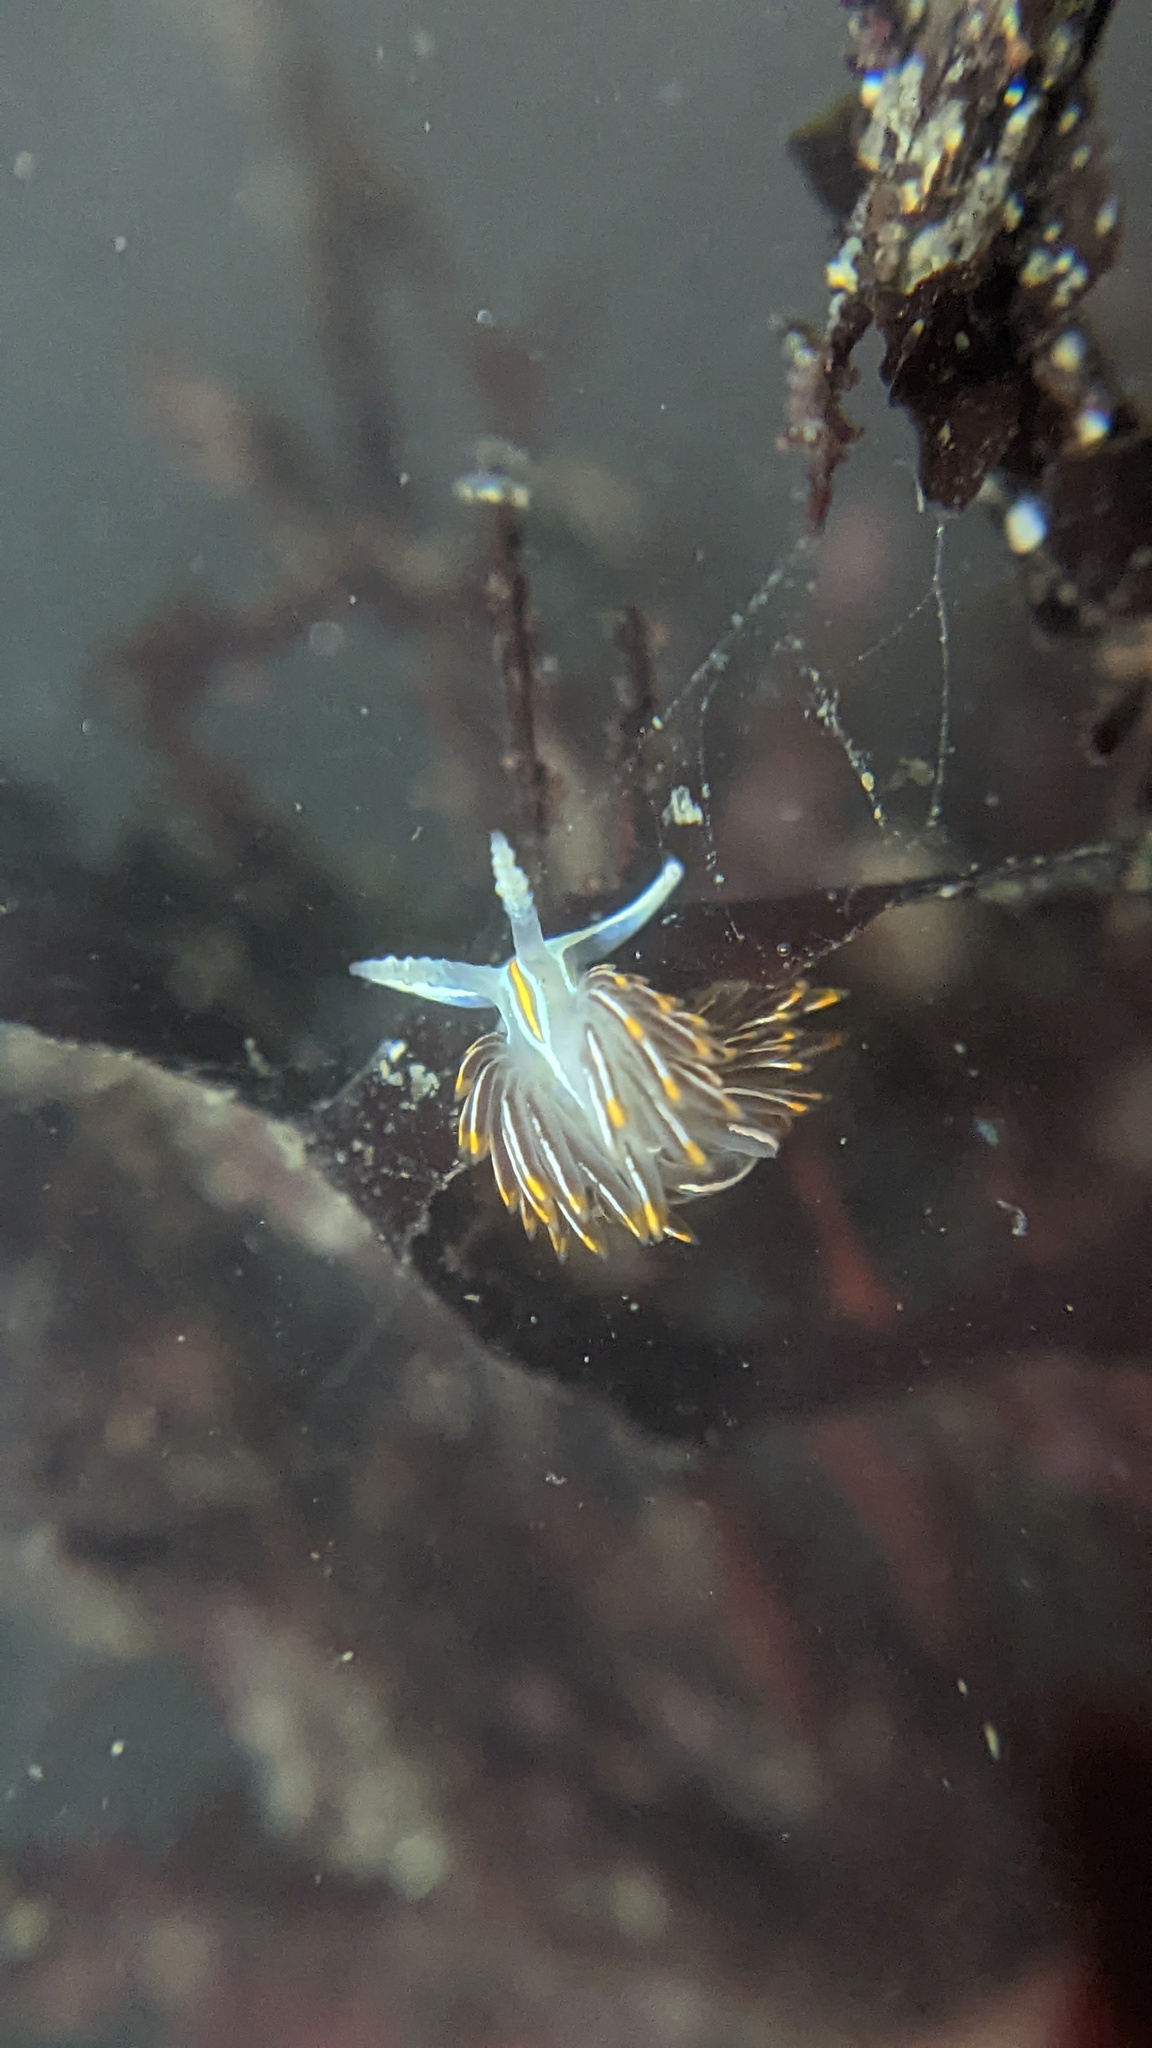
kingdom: Animalia
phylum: Mollusca
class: Gastropoda
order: Nudibranchia
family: Myrrhinidae
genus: Hermissenda
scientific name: Hermissenda crassicornis
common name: Hermissenda
